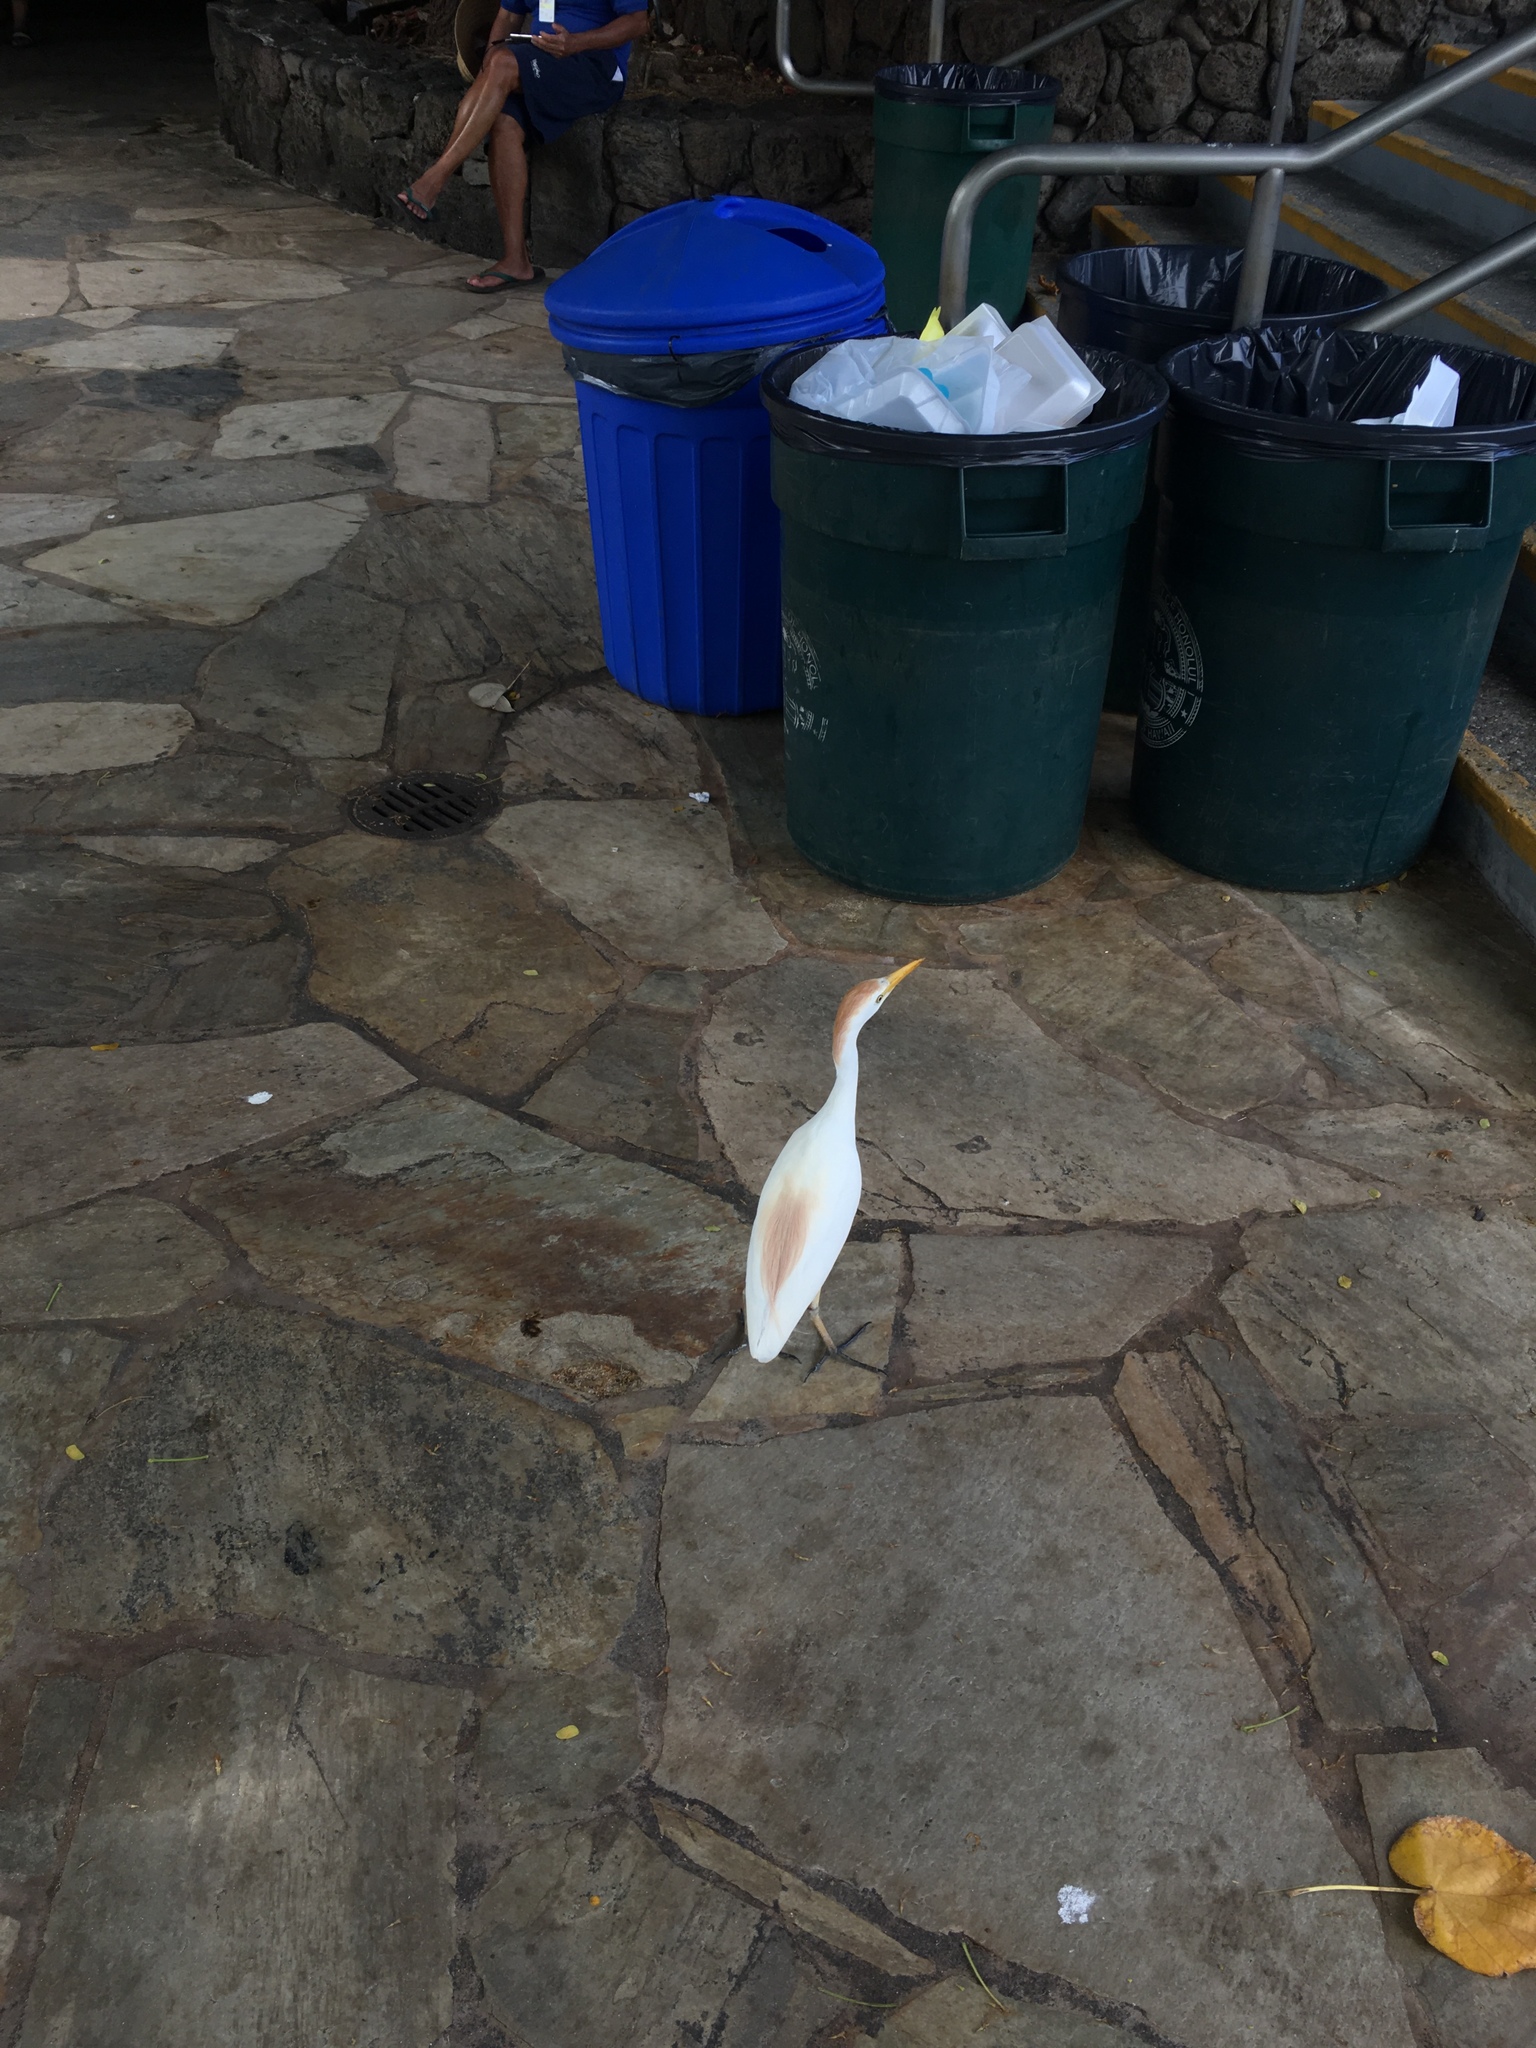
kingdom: Animalia
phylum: Chordata
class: Aves
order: Pelecaniformes
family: Ardeidae
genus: Bubulcus
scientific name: Bubulcus ibis
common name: Cattle egret
